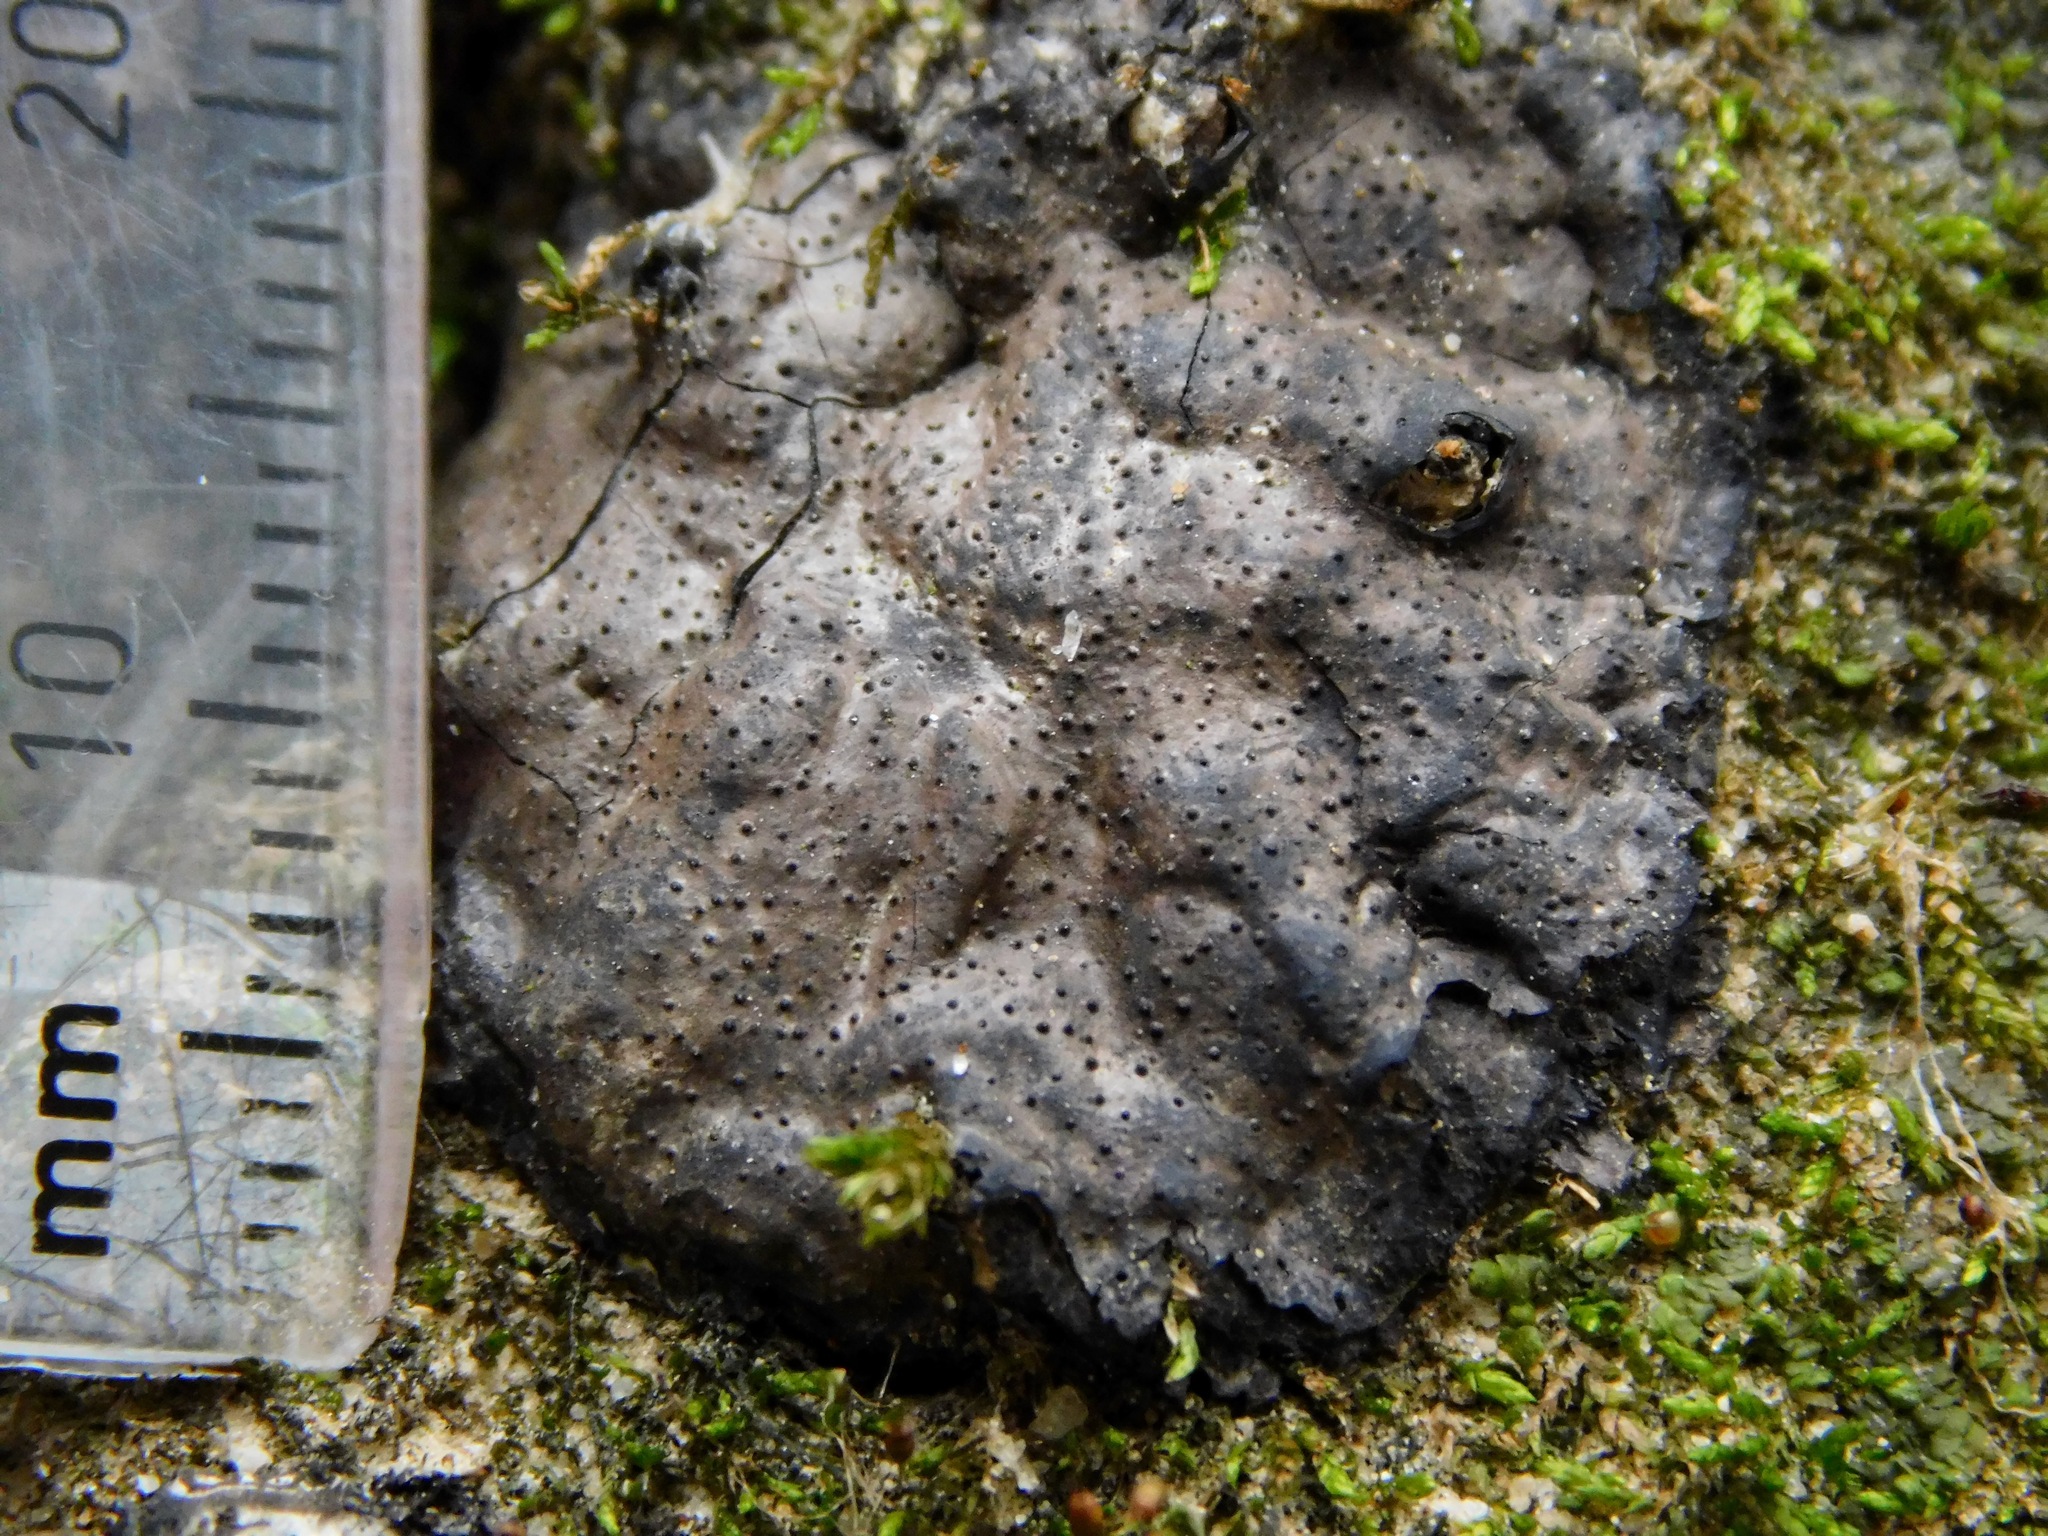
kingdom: Fungi
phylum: Ascomycota
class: Sordariomycetes
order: Xylariales
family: Xylariaceae
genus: Kretzschmaria
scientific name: Kretzschmaria deusta
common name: Brittle cinder
